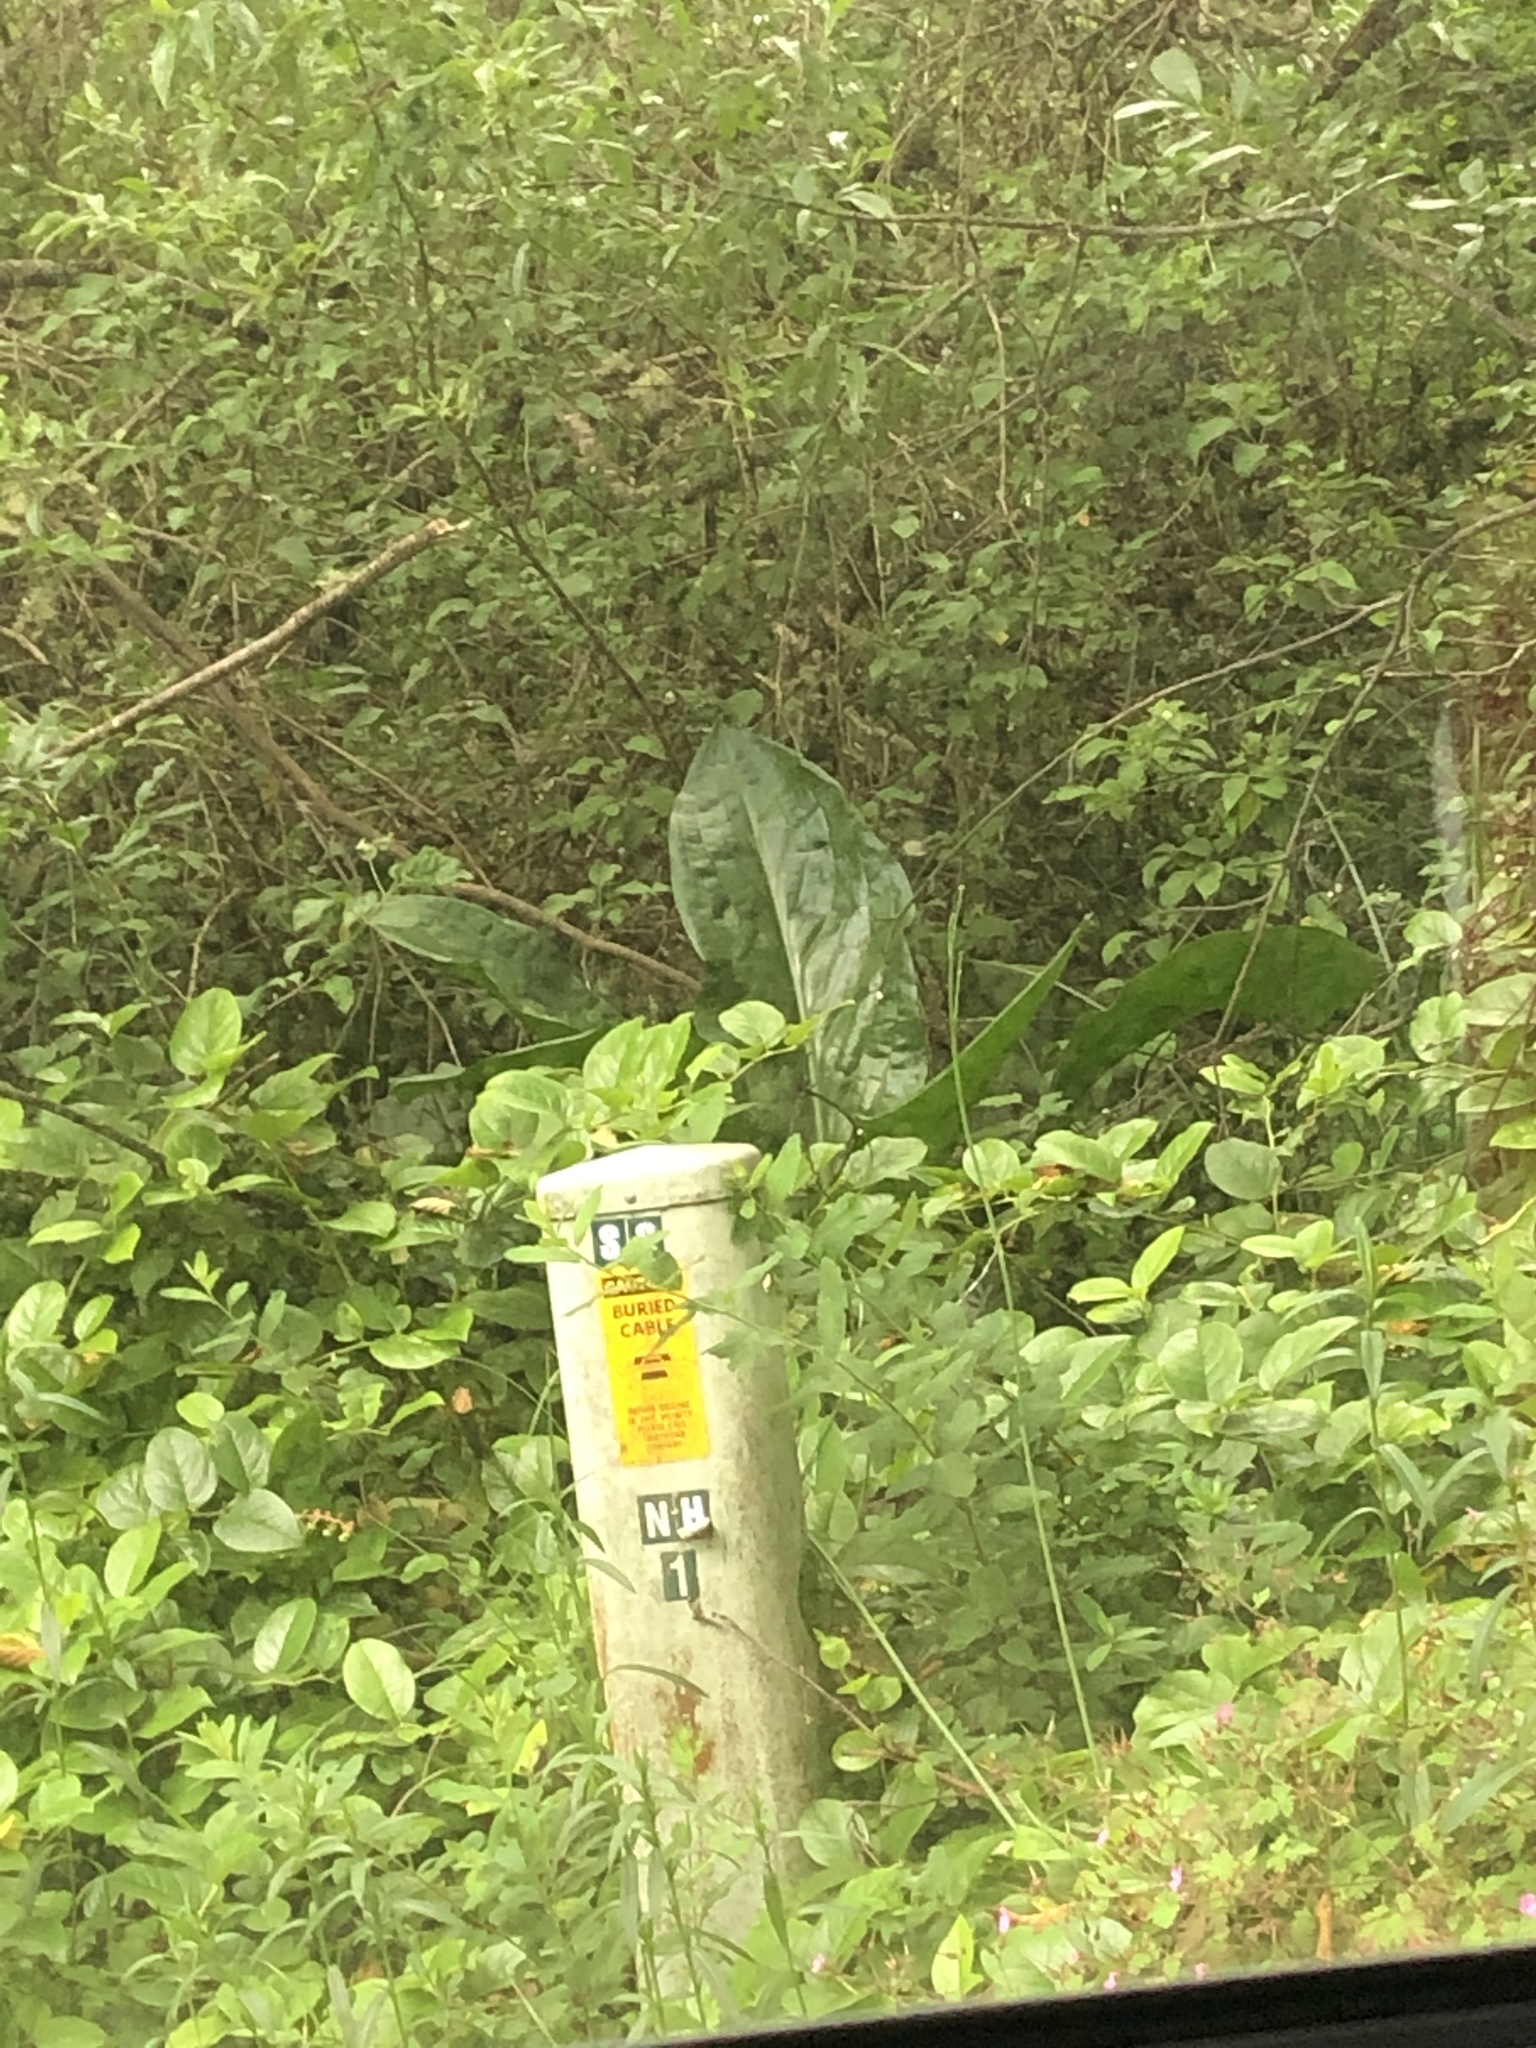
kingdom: Plantae
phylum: Tracheophyta
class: Liliopsida
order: Alismatales
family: Araceae
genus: Lysichiton
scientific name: Lysichiton americanus
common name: American skunk cabbage
